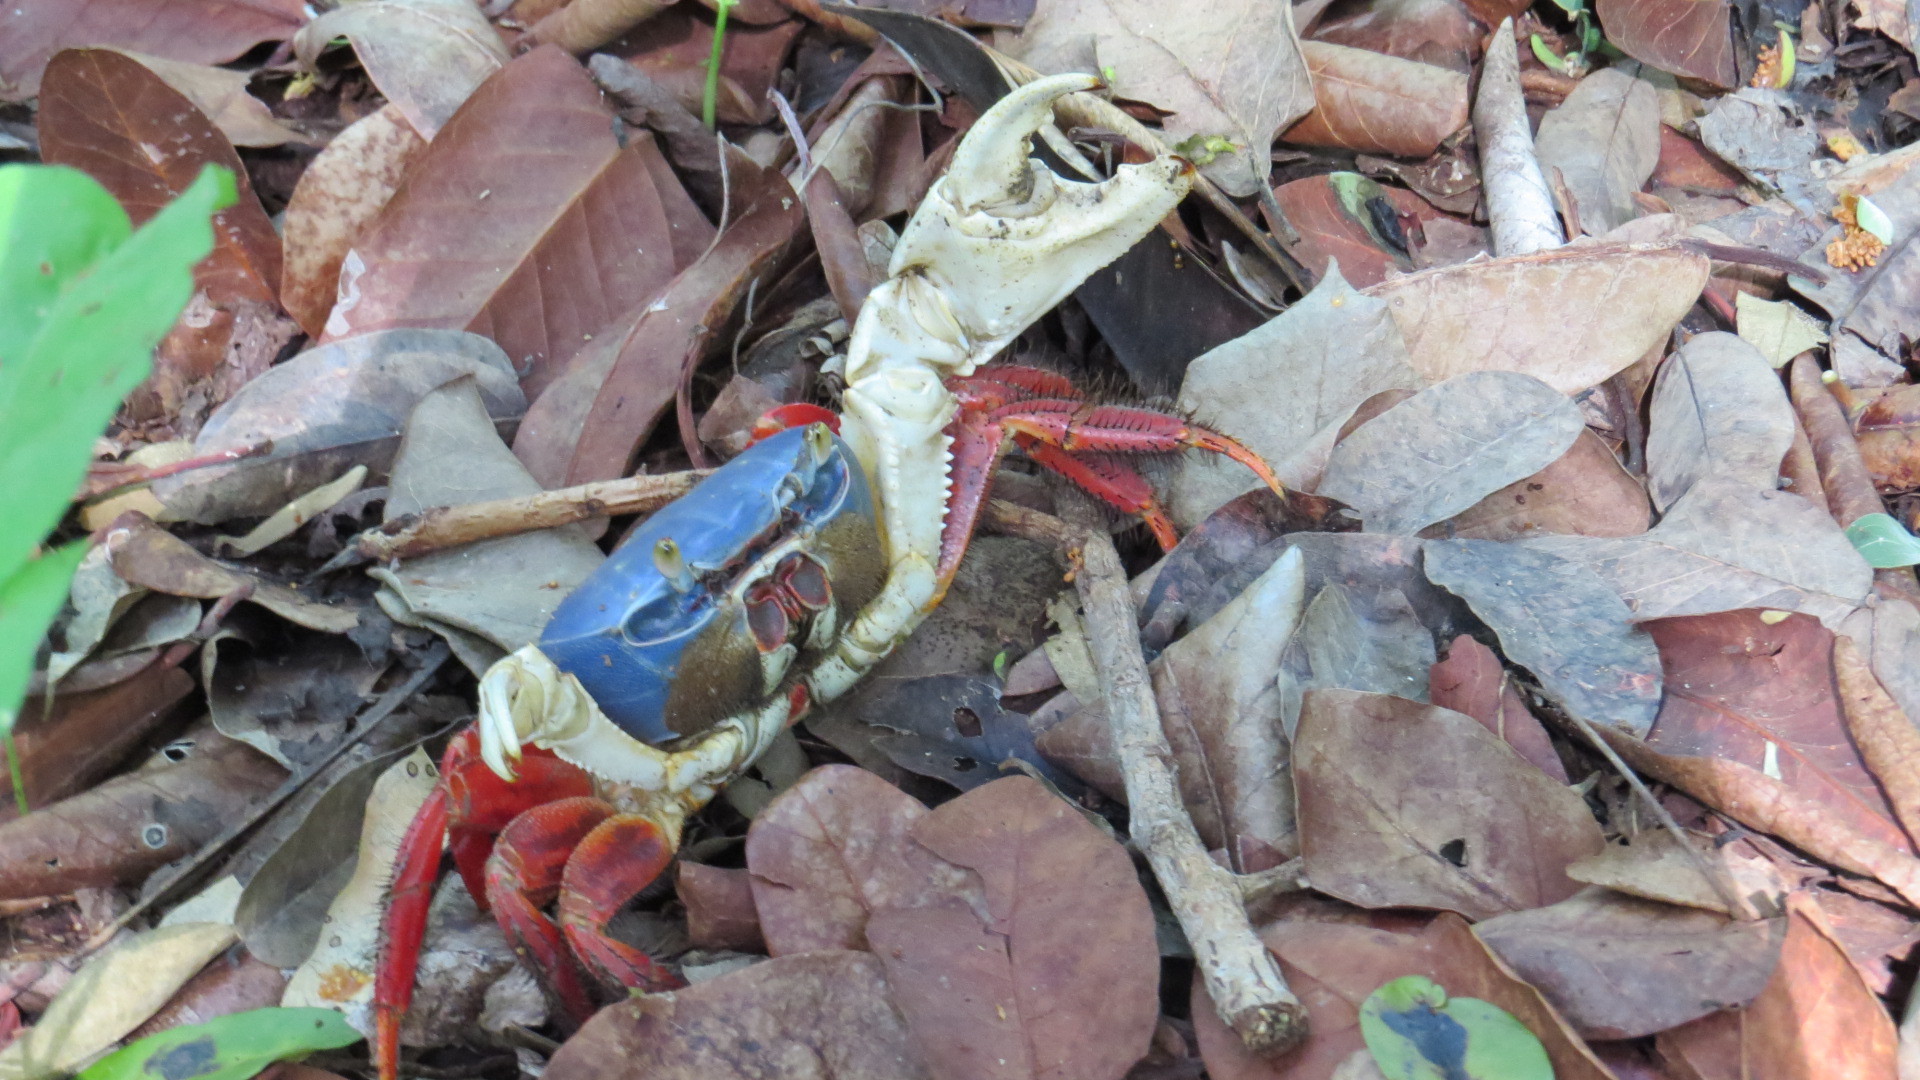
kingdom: Animalia
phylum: Arthropoda
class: Malacostraca
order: Decapoda
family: Gecarcinidae
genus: Cardisoma
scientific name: Cardisoma crassum
